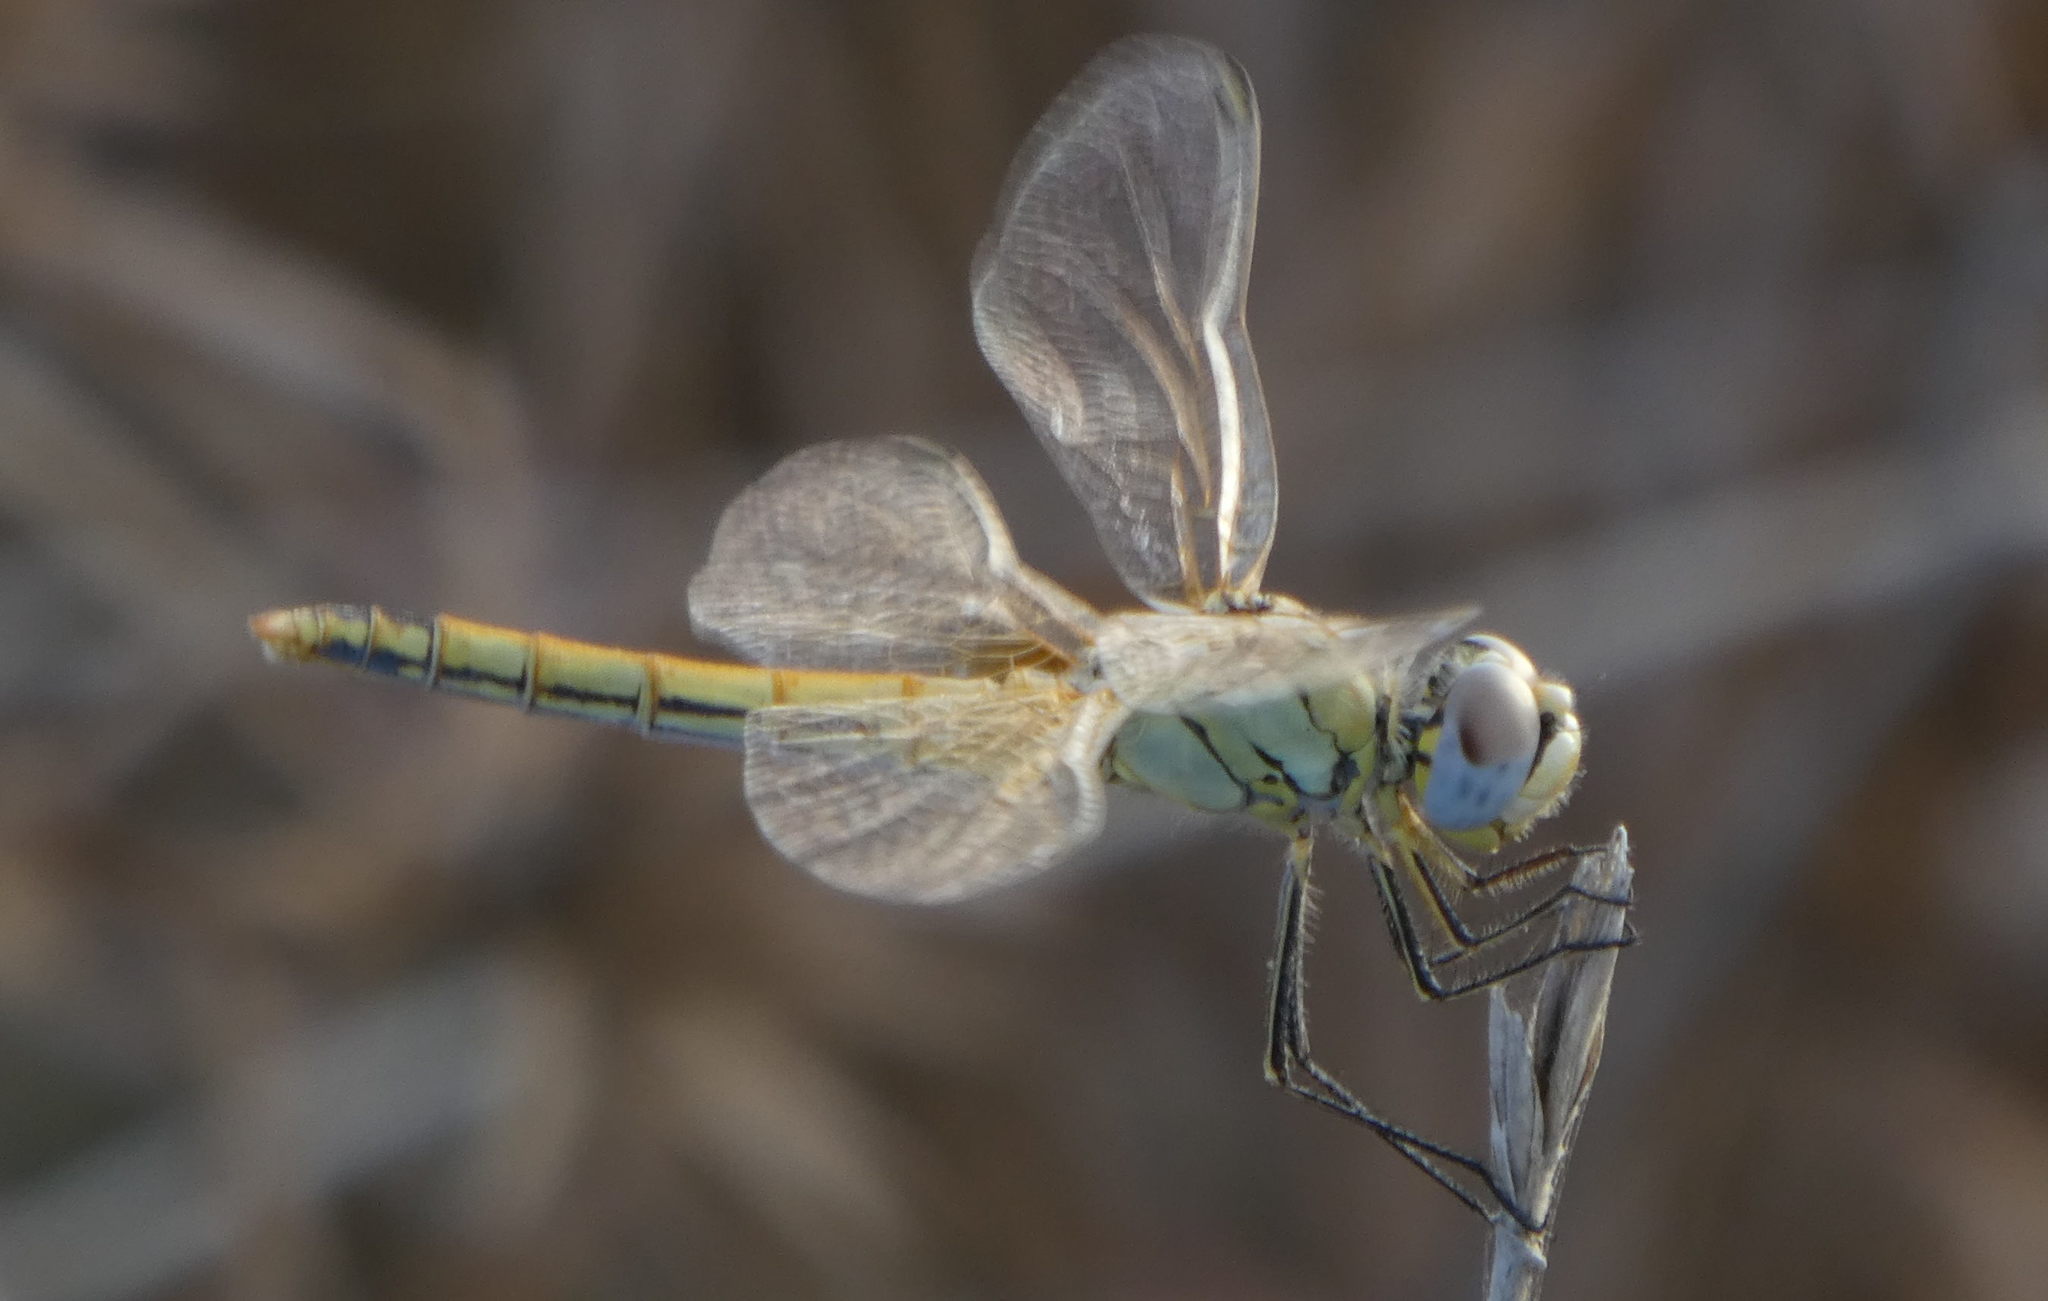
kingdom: Animalia
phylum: Arthropoda
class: Insecta
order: Odonata
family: Libellulidae
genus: Sympetrum
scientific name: Sympetrum fonscolombii
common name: Red-veined darter
